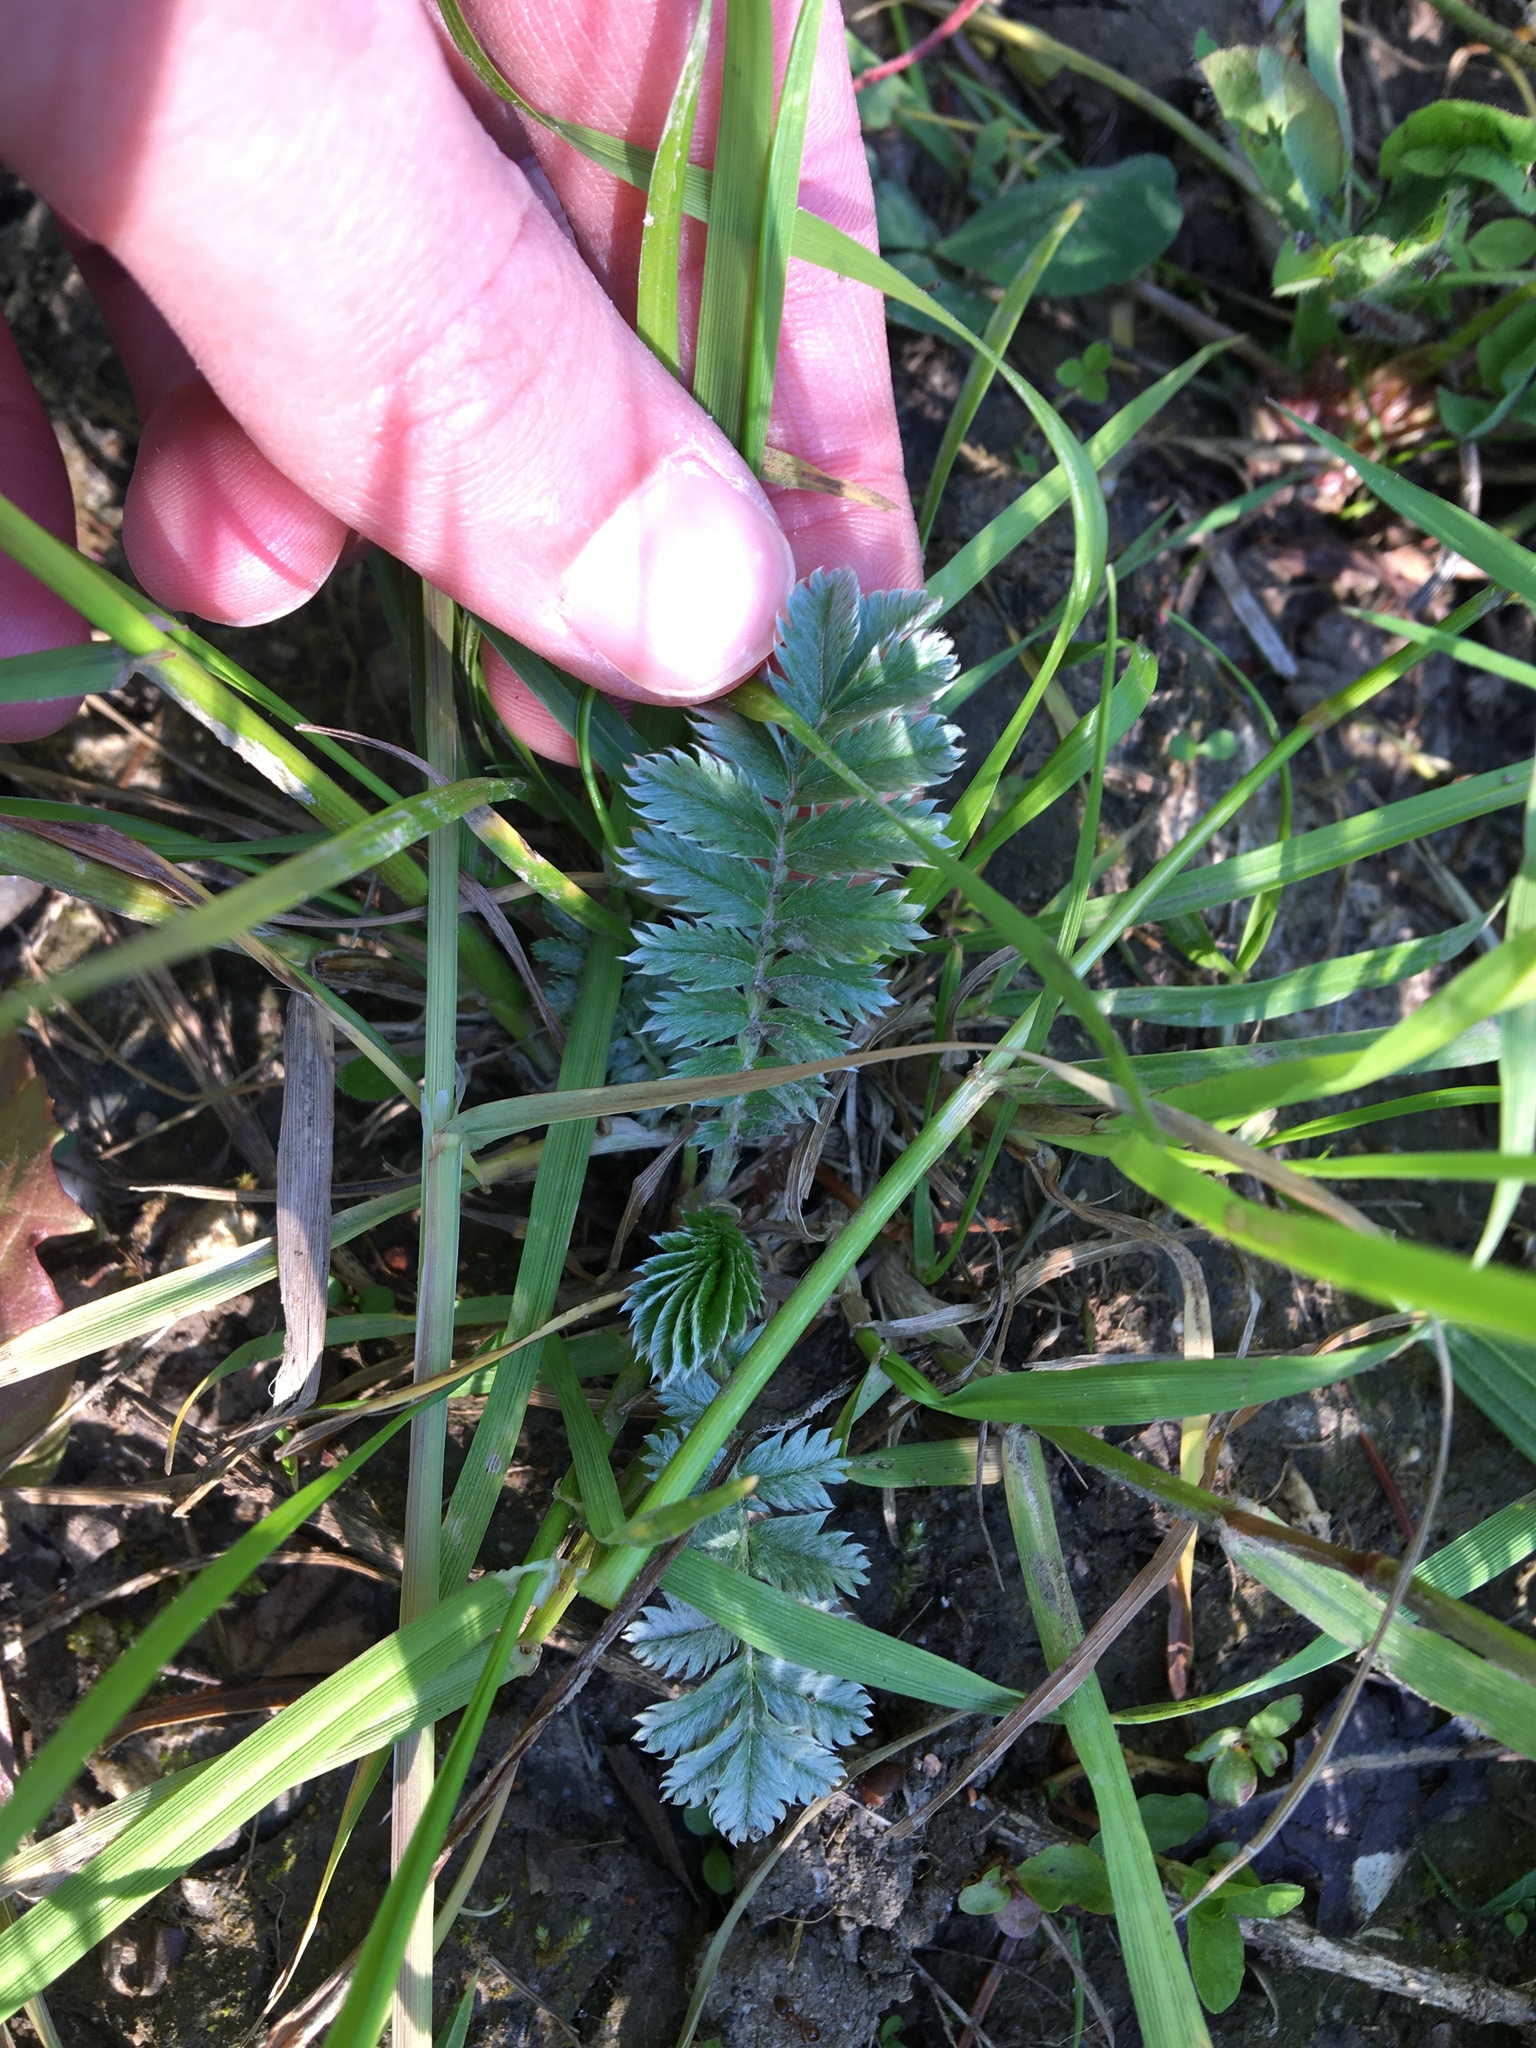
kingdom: Plantae
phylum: Tracheophyta
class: Magnoliopsida
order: Rosales
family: Rosaceae
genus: Argentina
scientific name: Argentina anserina
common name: Common silverweed
